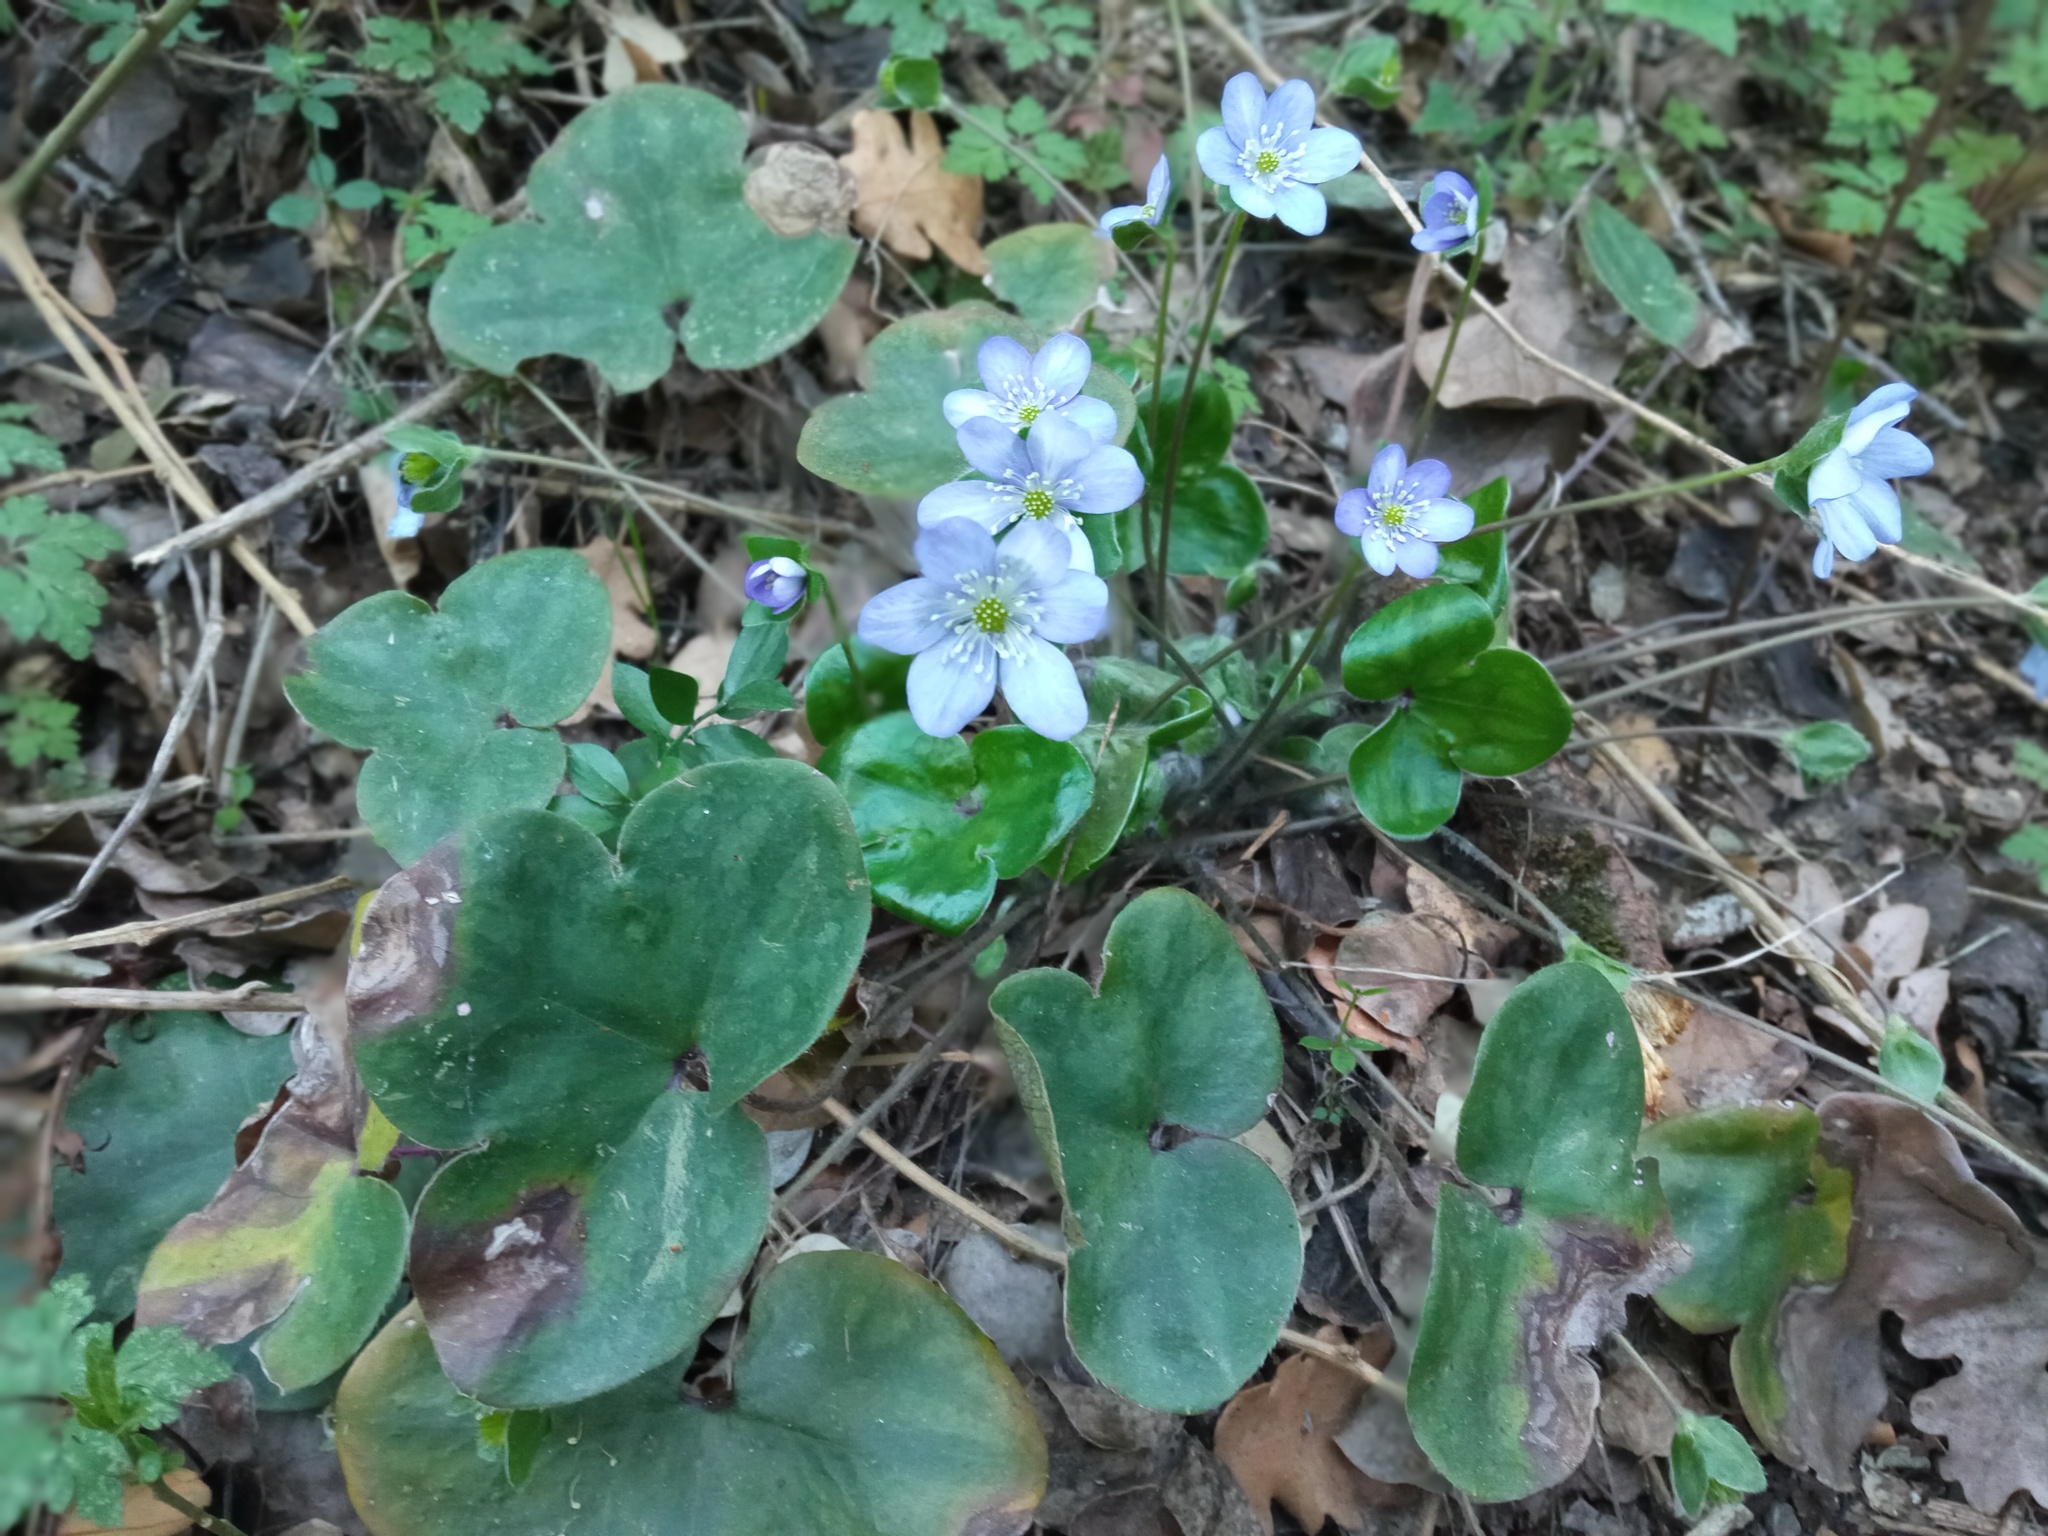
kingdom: Plantae
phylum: Tracheophyta
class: Magnoliopsida
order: Ranunculales
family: Ranunculaceae
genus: Hepatica
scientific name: Hepatica nobilis
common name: Liverleaf
